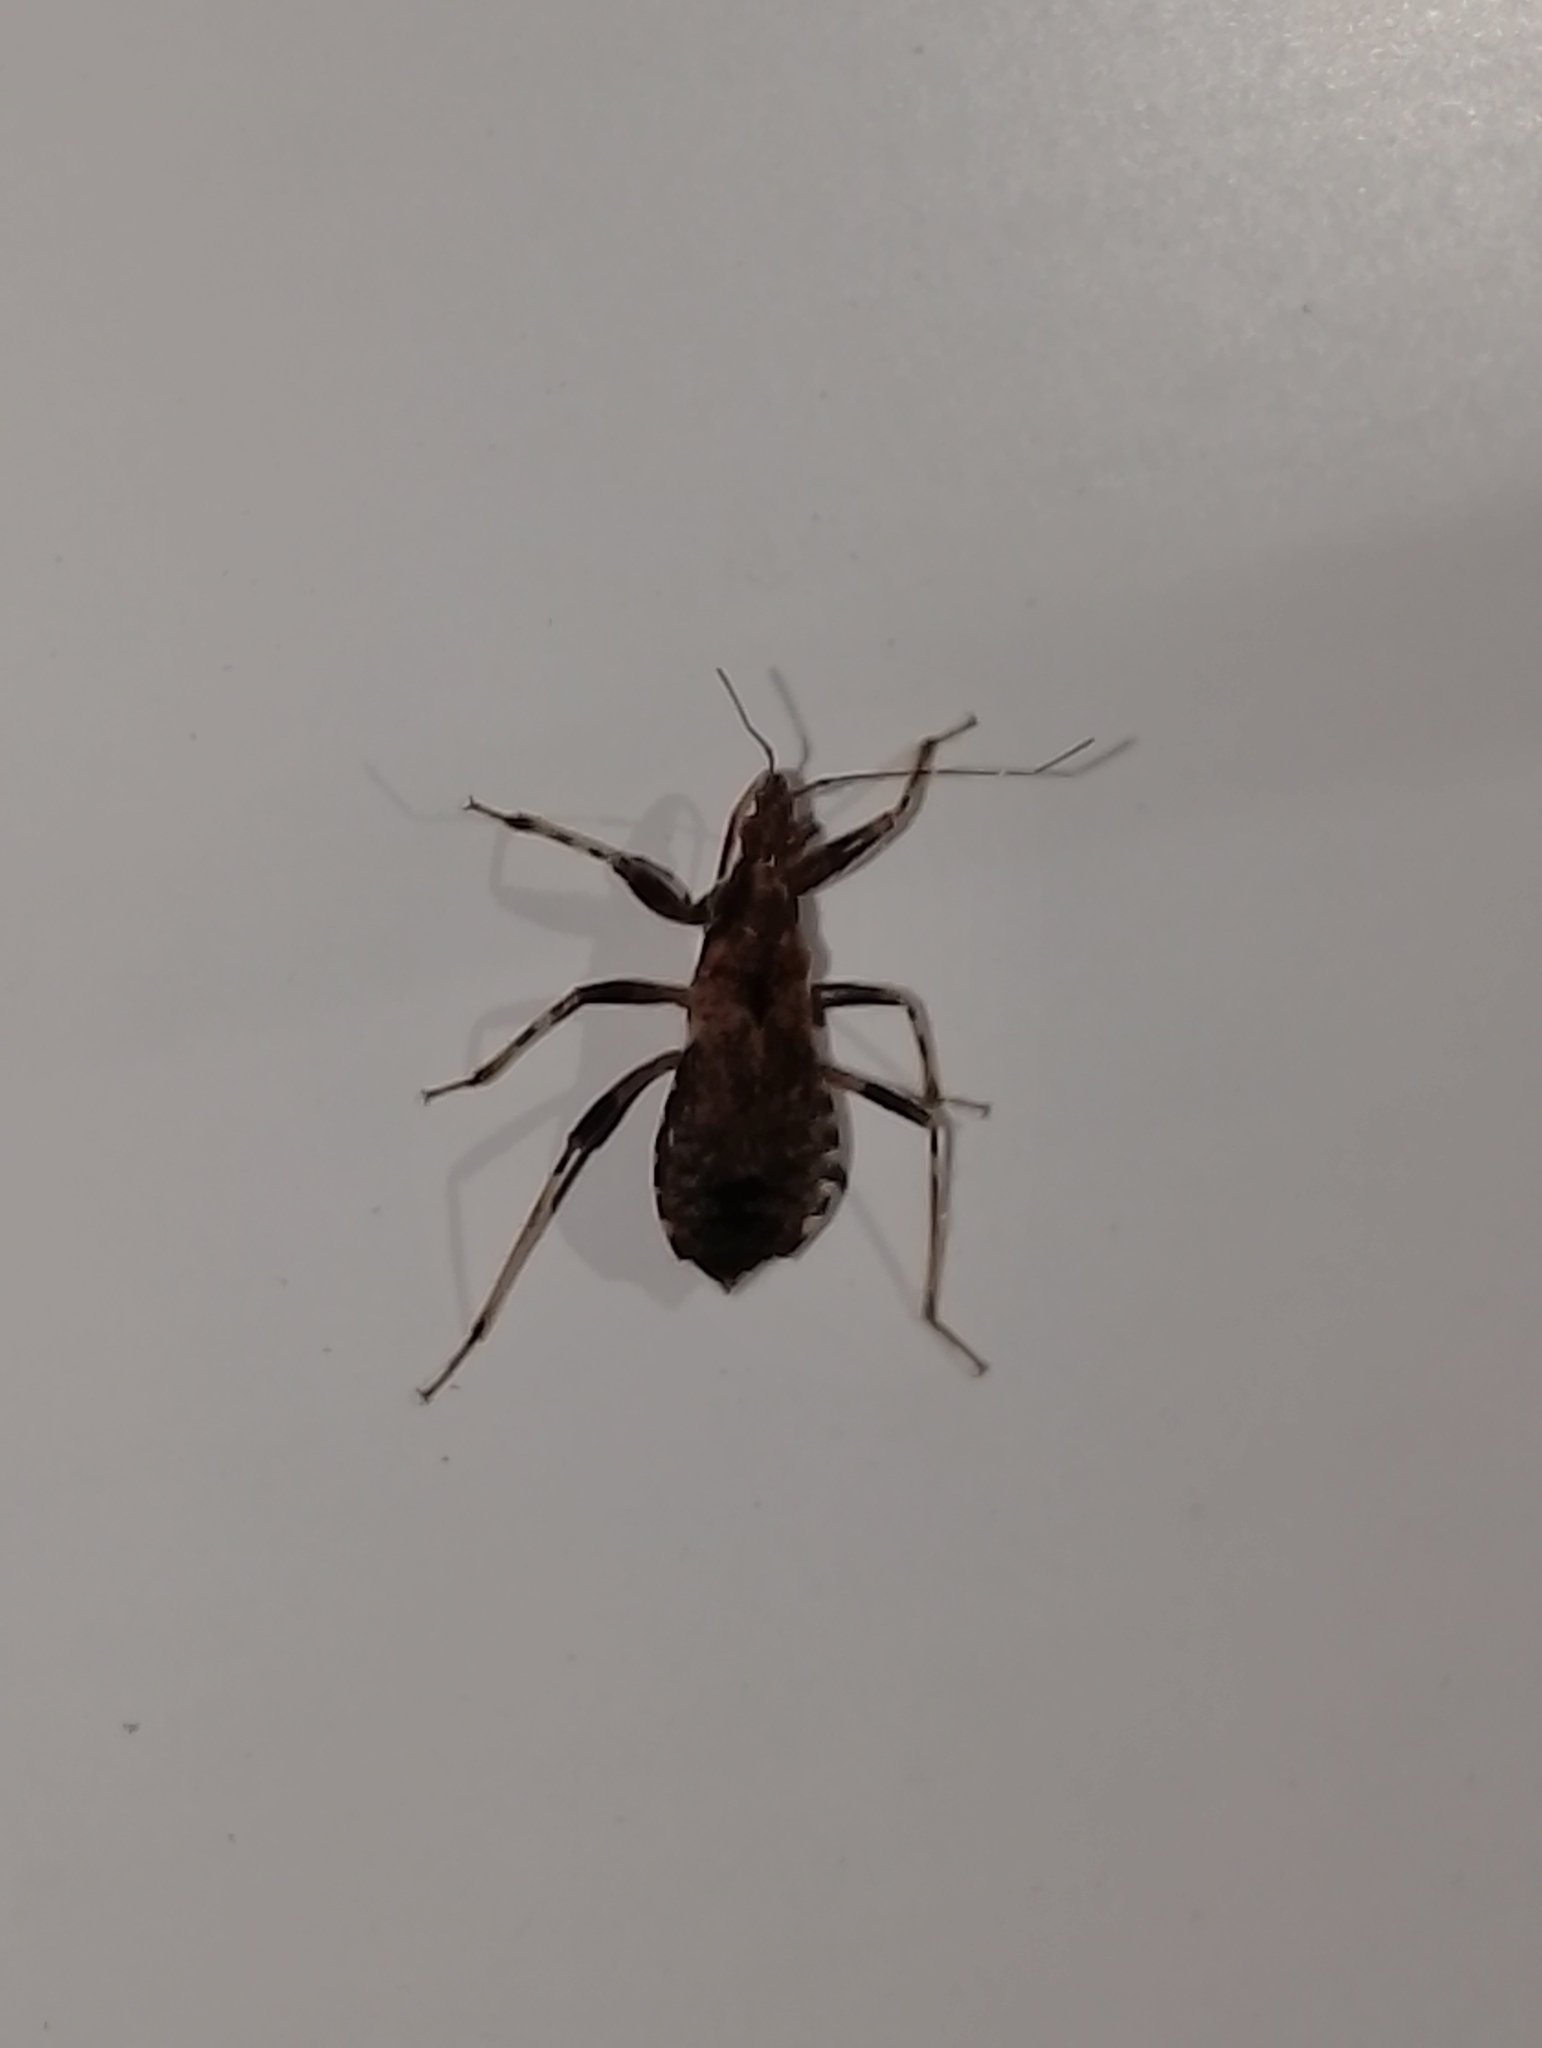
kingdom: Animalia
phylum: Arthropoda
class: Insecta
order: Hemiptera
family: Nabidae
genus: Himacerus
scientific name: Himacerus mirmicoides
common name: Ant damsel bug
